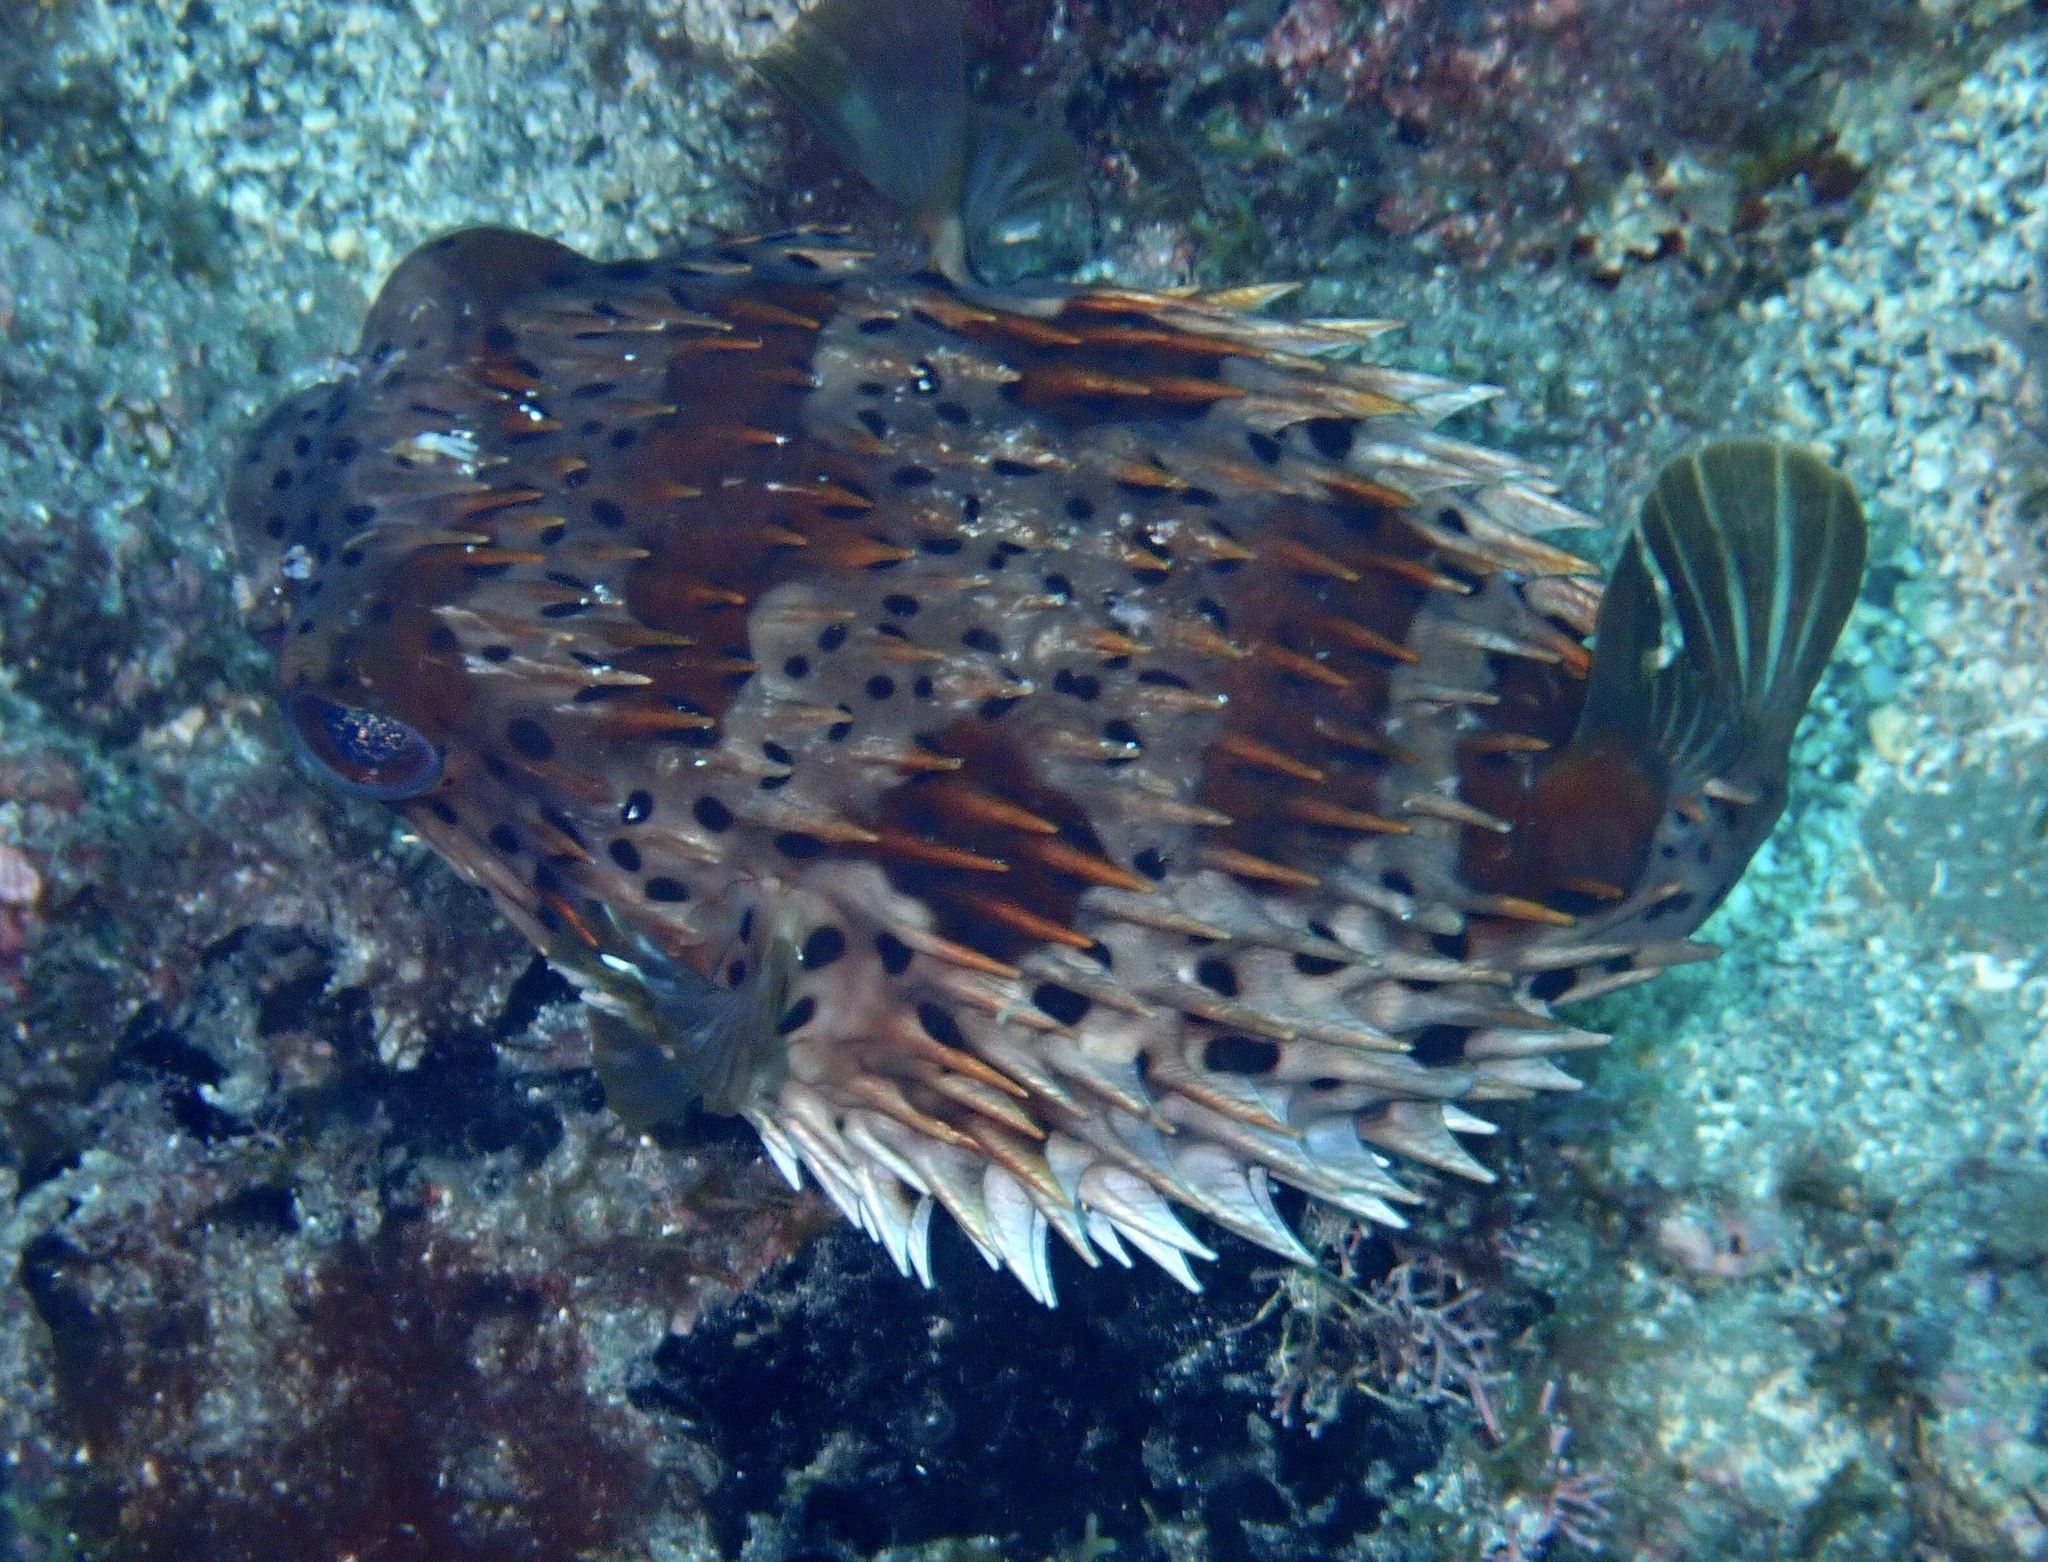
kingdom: Animalia
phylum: Chordata
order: Tetraodontiformes
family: Diodontidae
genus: Diodon
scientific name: Diodon holocanthus
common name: Balloonfish
